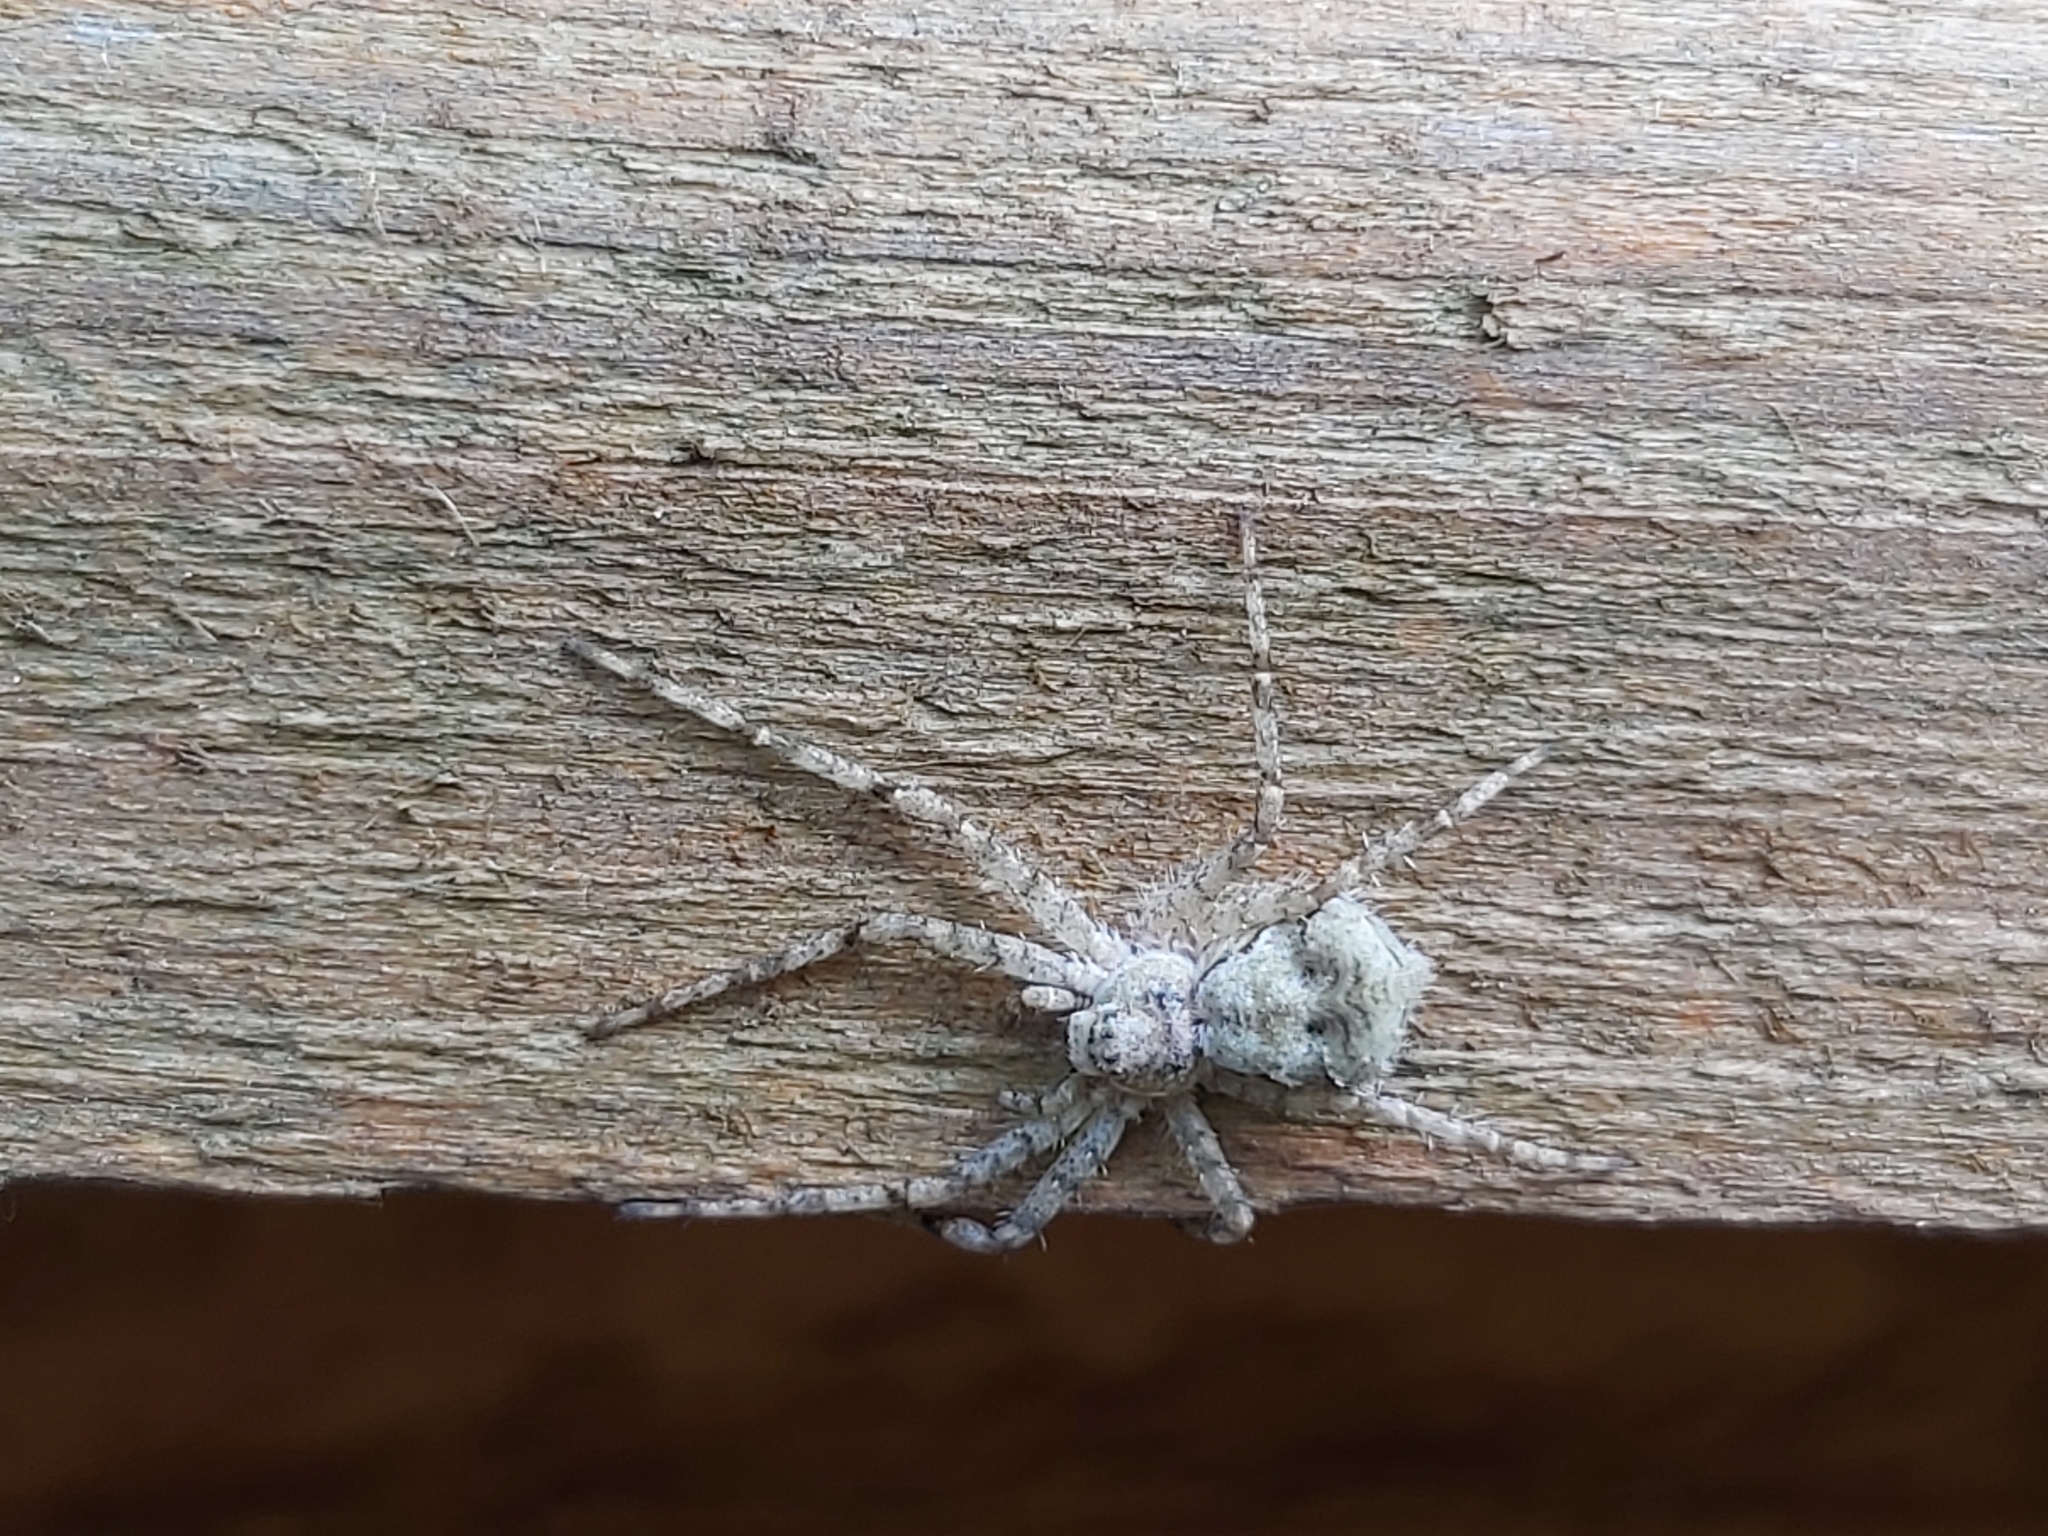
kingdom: Animalia
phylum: Arthropoda
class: Arachnida
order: Araneae
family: Philodromidae
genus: Philodromus
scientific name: Philodromus margaritatus
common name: Lichen running-spider
